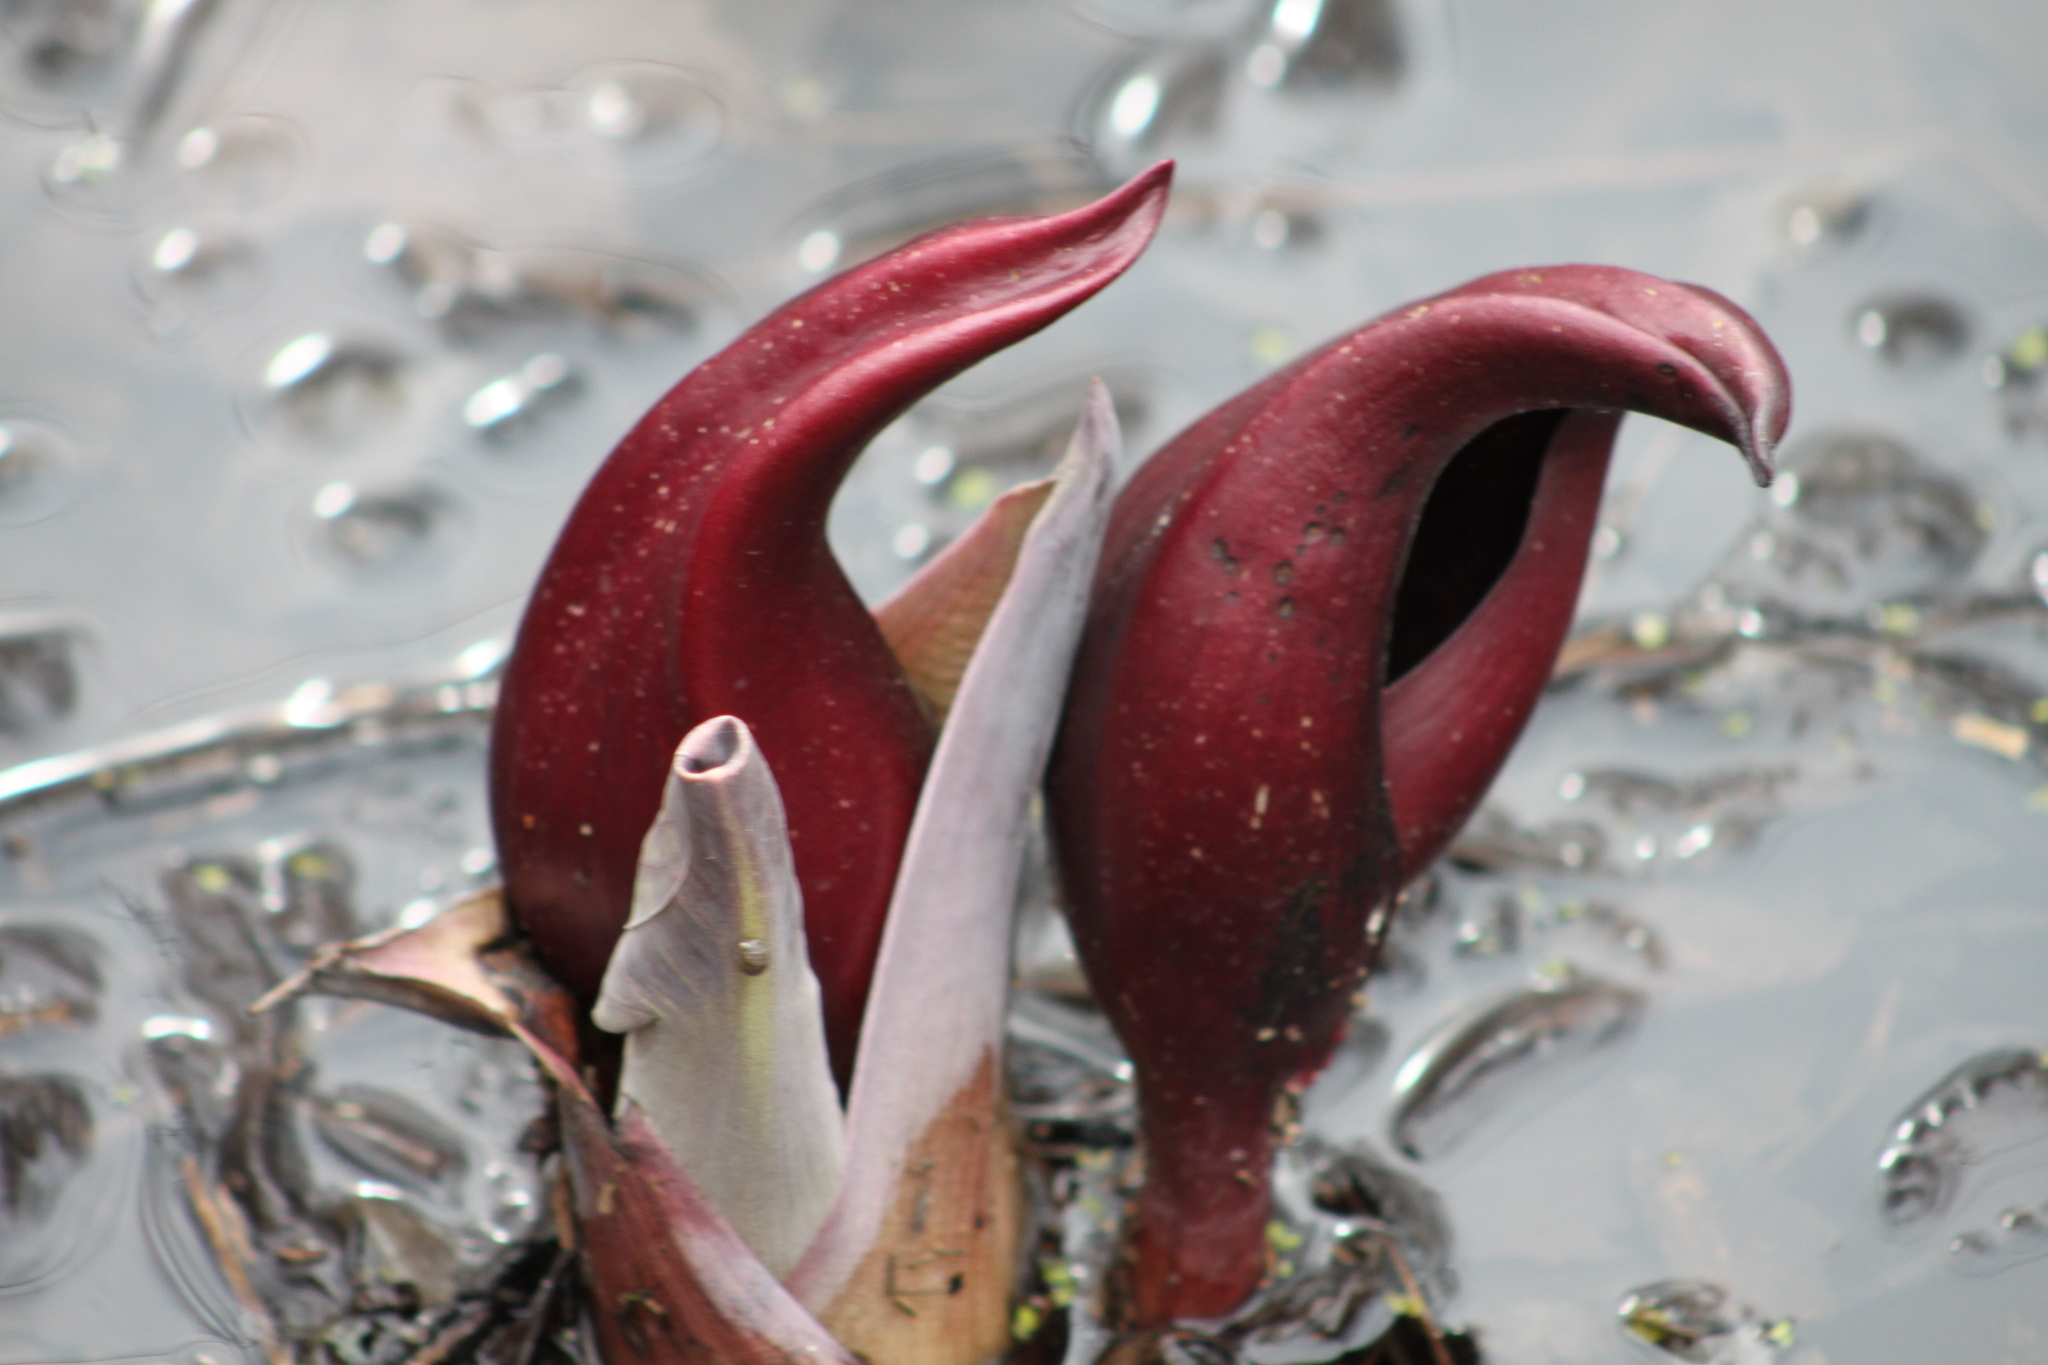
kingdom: Plantae
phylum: Tracheophyta
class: Liliopsida
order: Alismatales
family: Araceae
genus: Symplocarpus
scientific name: Symplocarpus foetidus
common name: Eastern skunk cabbage
